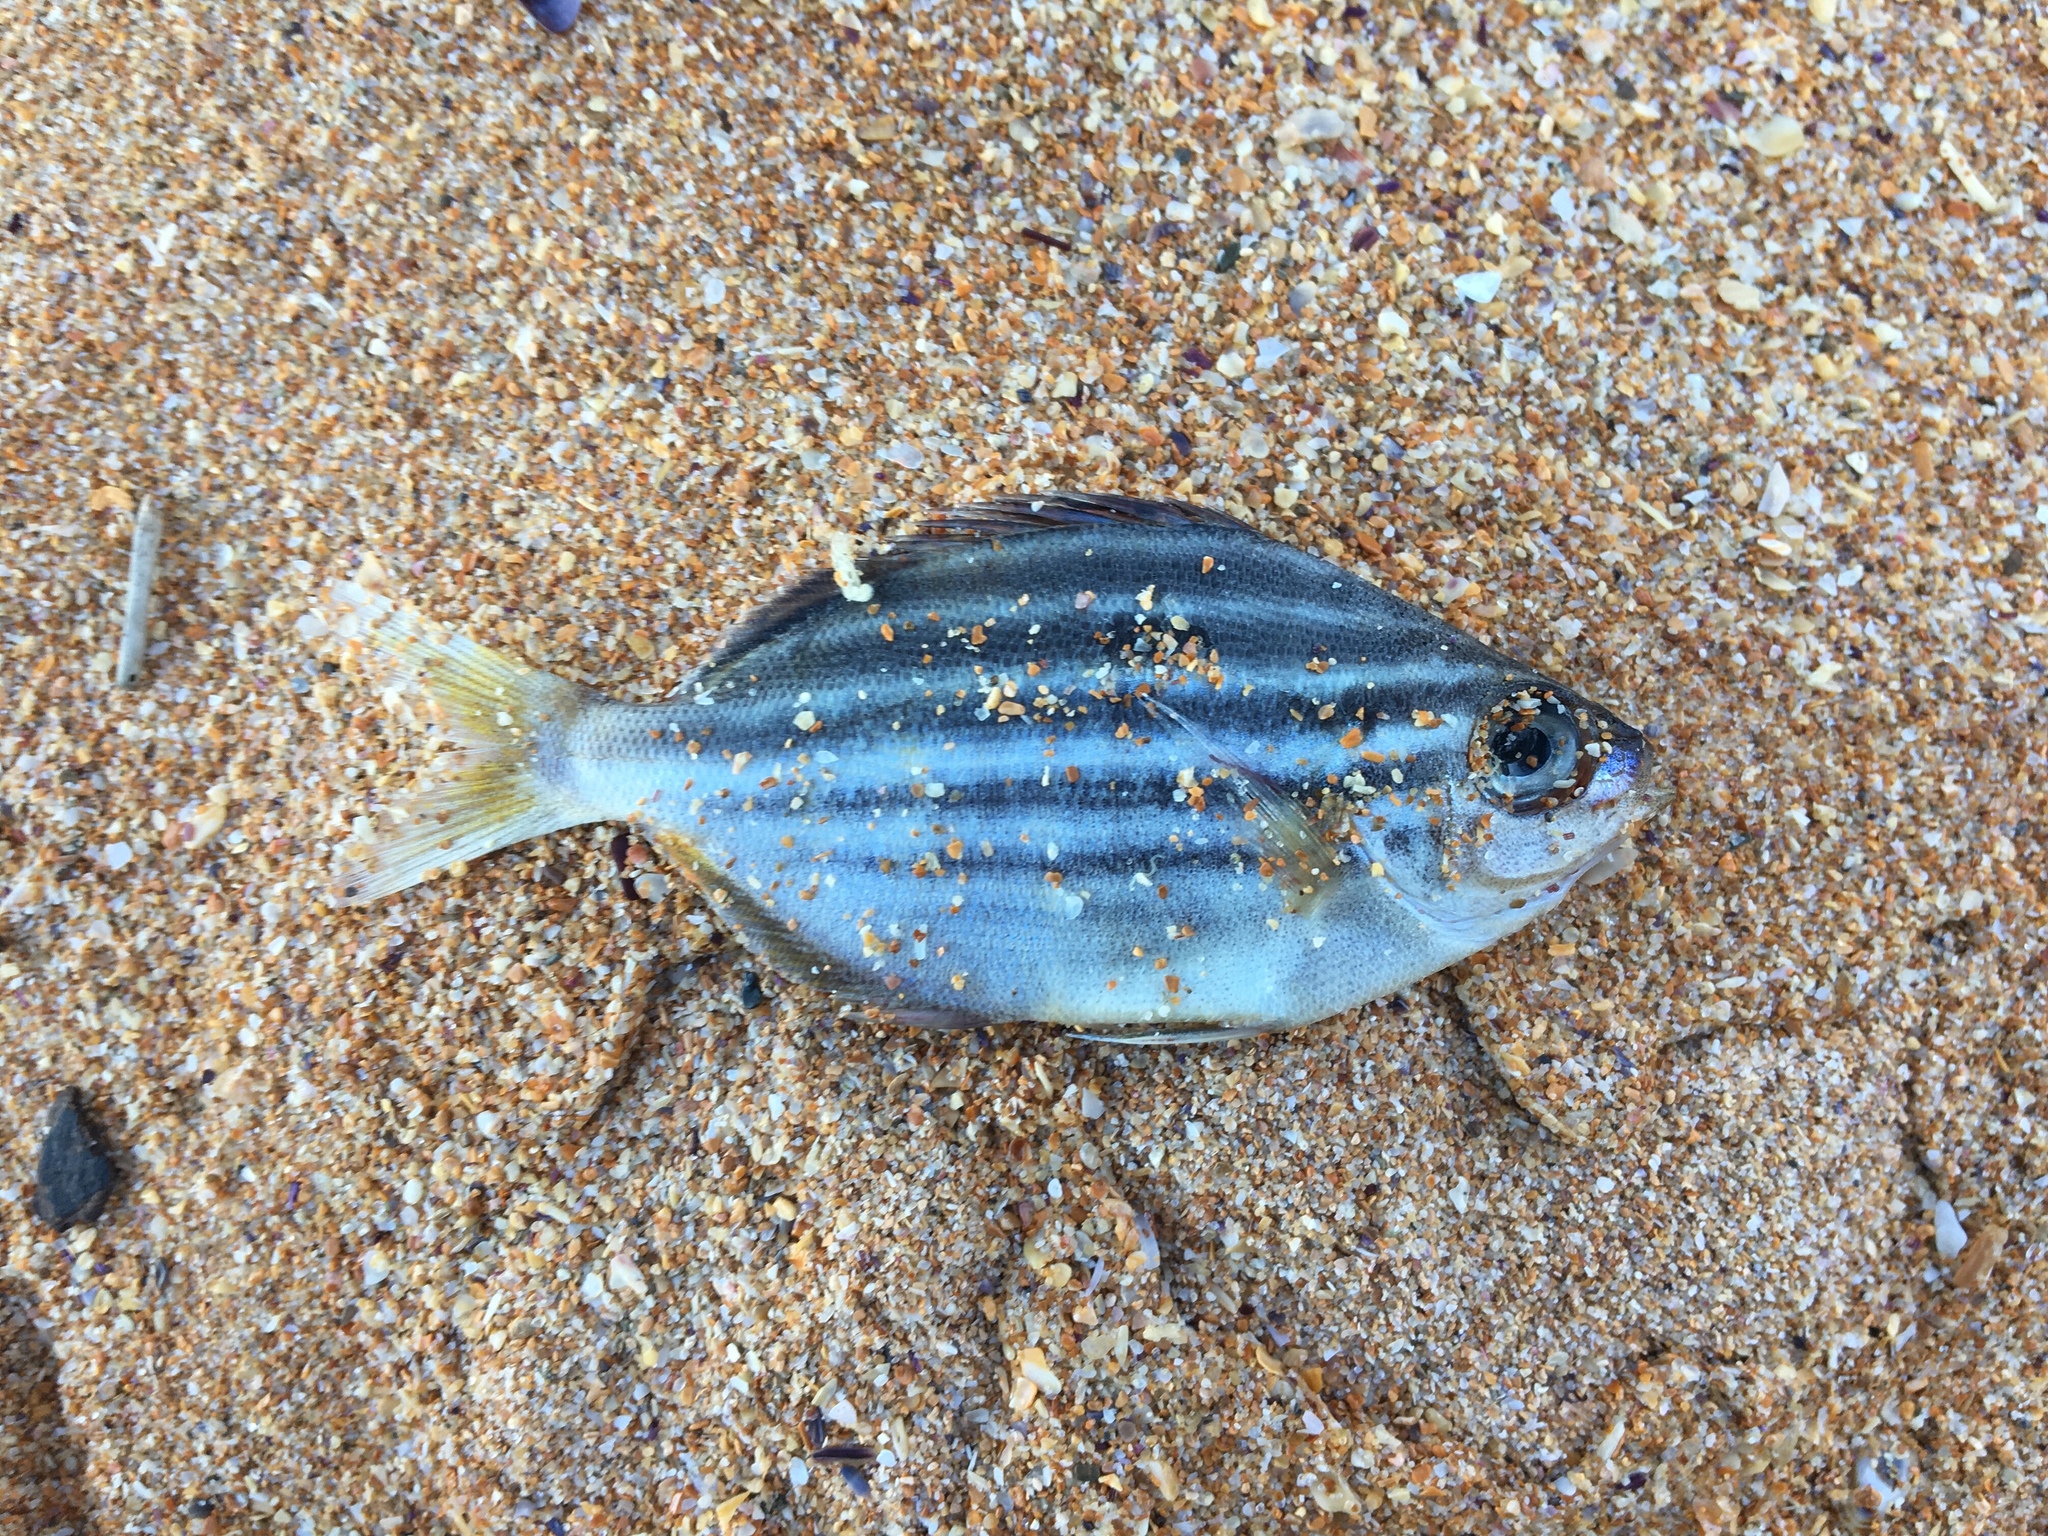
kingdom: Animalia
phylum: Chordata
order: Perciformes
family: Kyphosidae
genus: Atypichthys
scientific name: Atypichthys strigatus
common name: Australian mado
